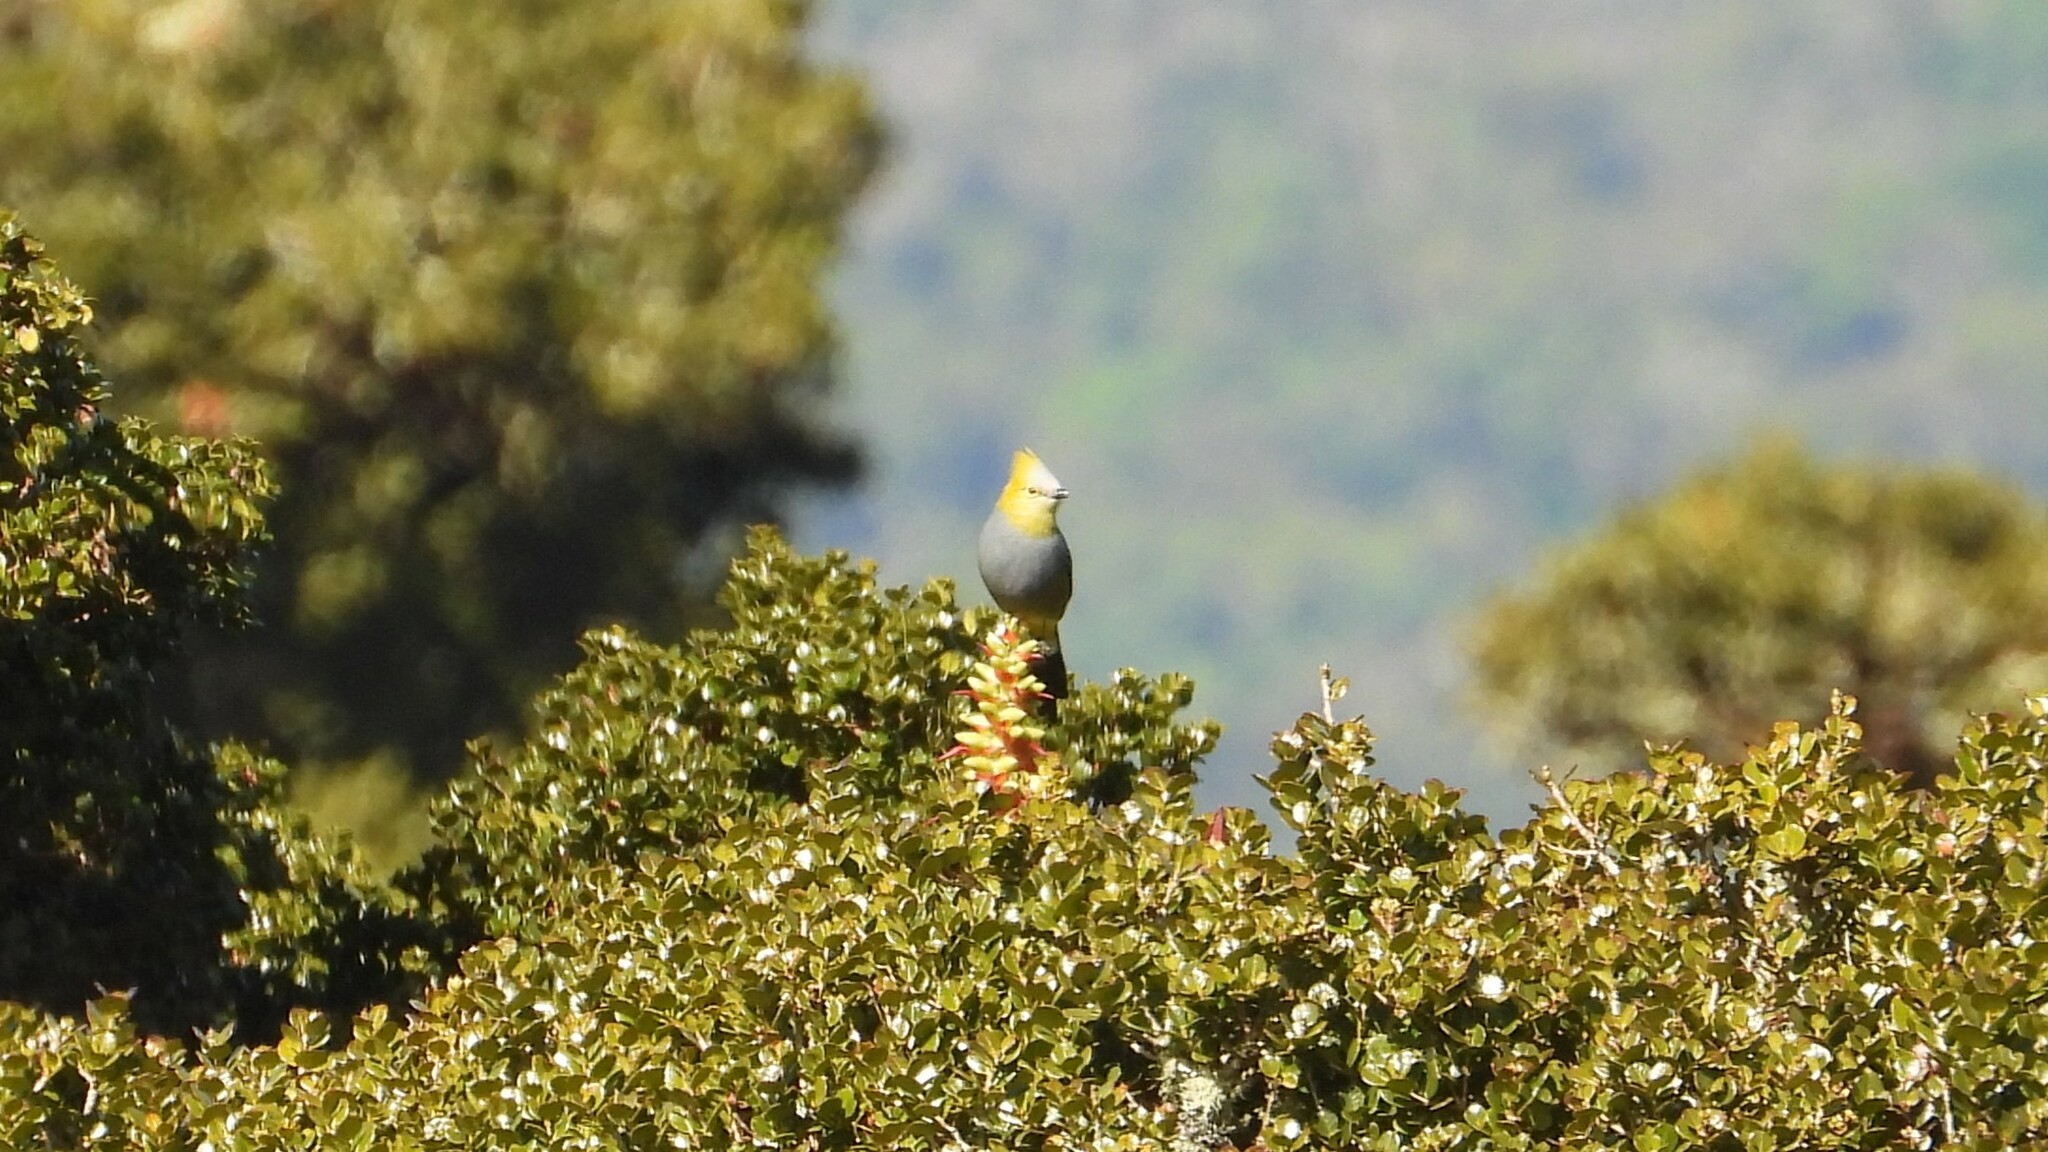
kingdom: Animalia
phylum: Chordata
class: Aves
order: Passeriformes
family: Ptilogonatidae
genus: Ptilogonys
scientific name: Ptilogonys caudatus
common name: Long-tailed silky-flycatcher
